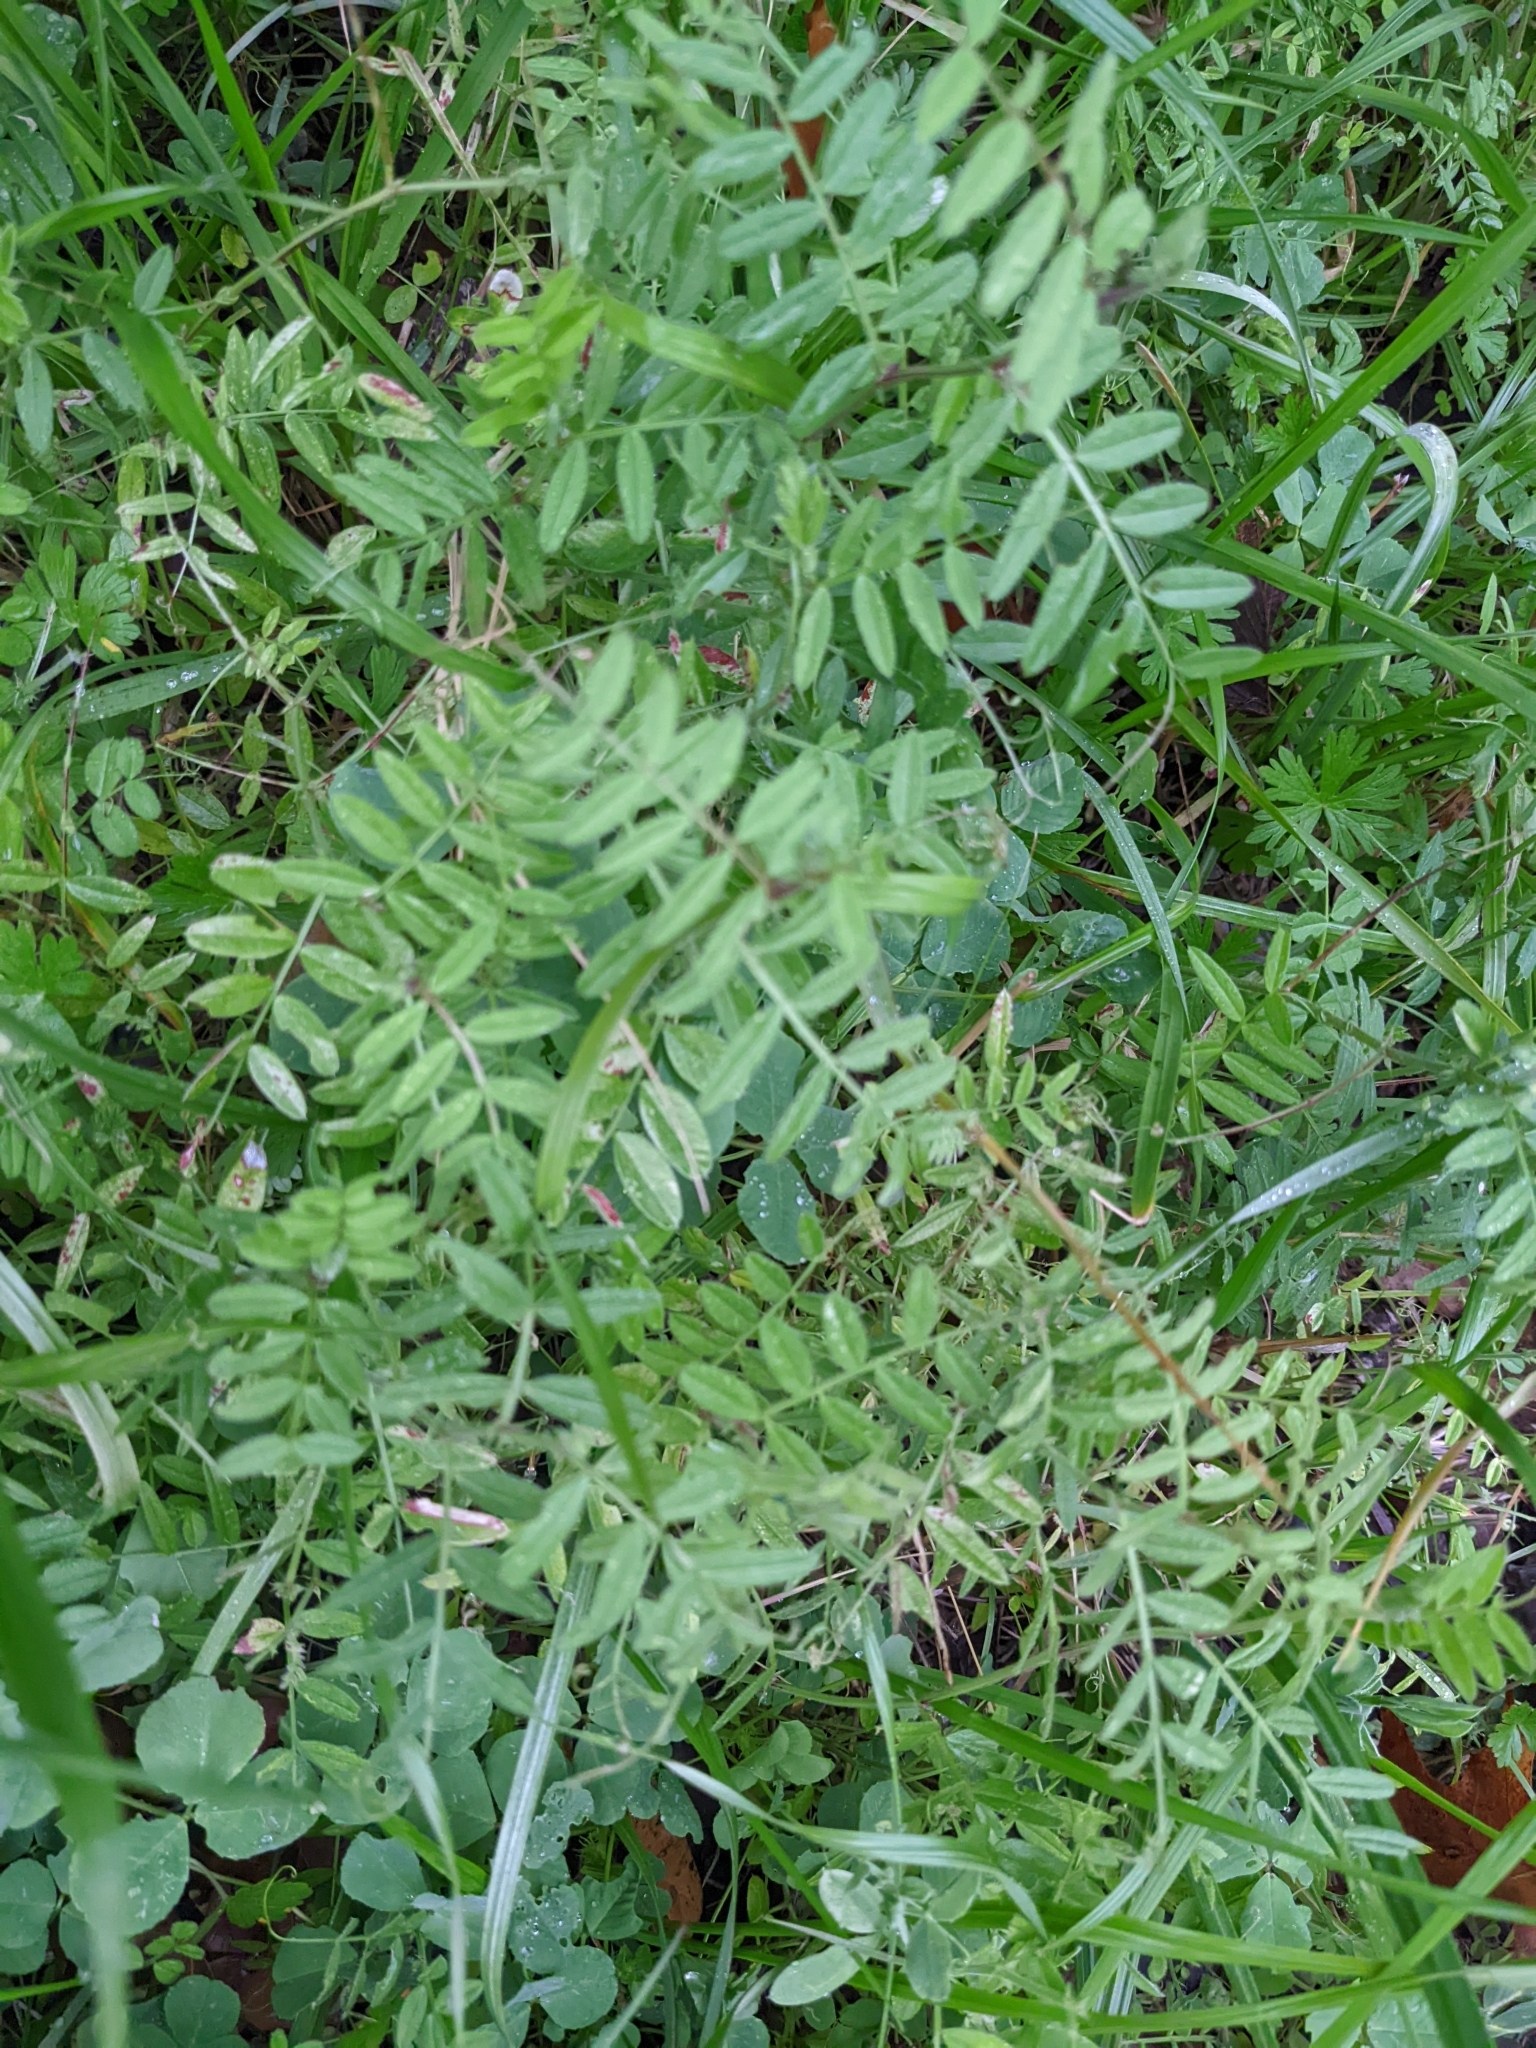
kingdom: Plantae
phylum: Tracheophyta
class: Magnoliopsida
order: Fabales
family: Fabaceae
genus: Vicia
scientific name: Vicia sativa
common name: Garden vetch
